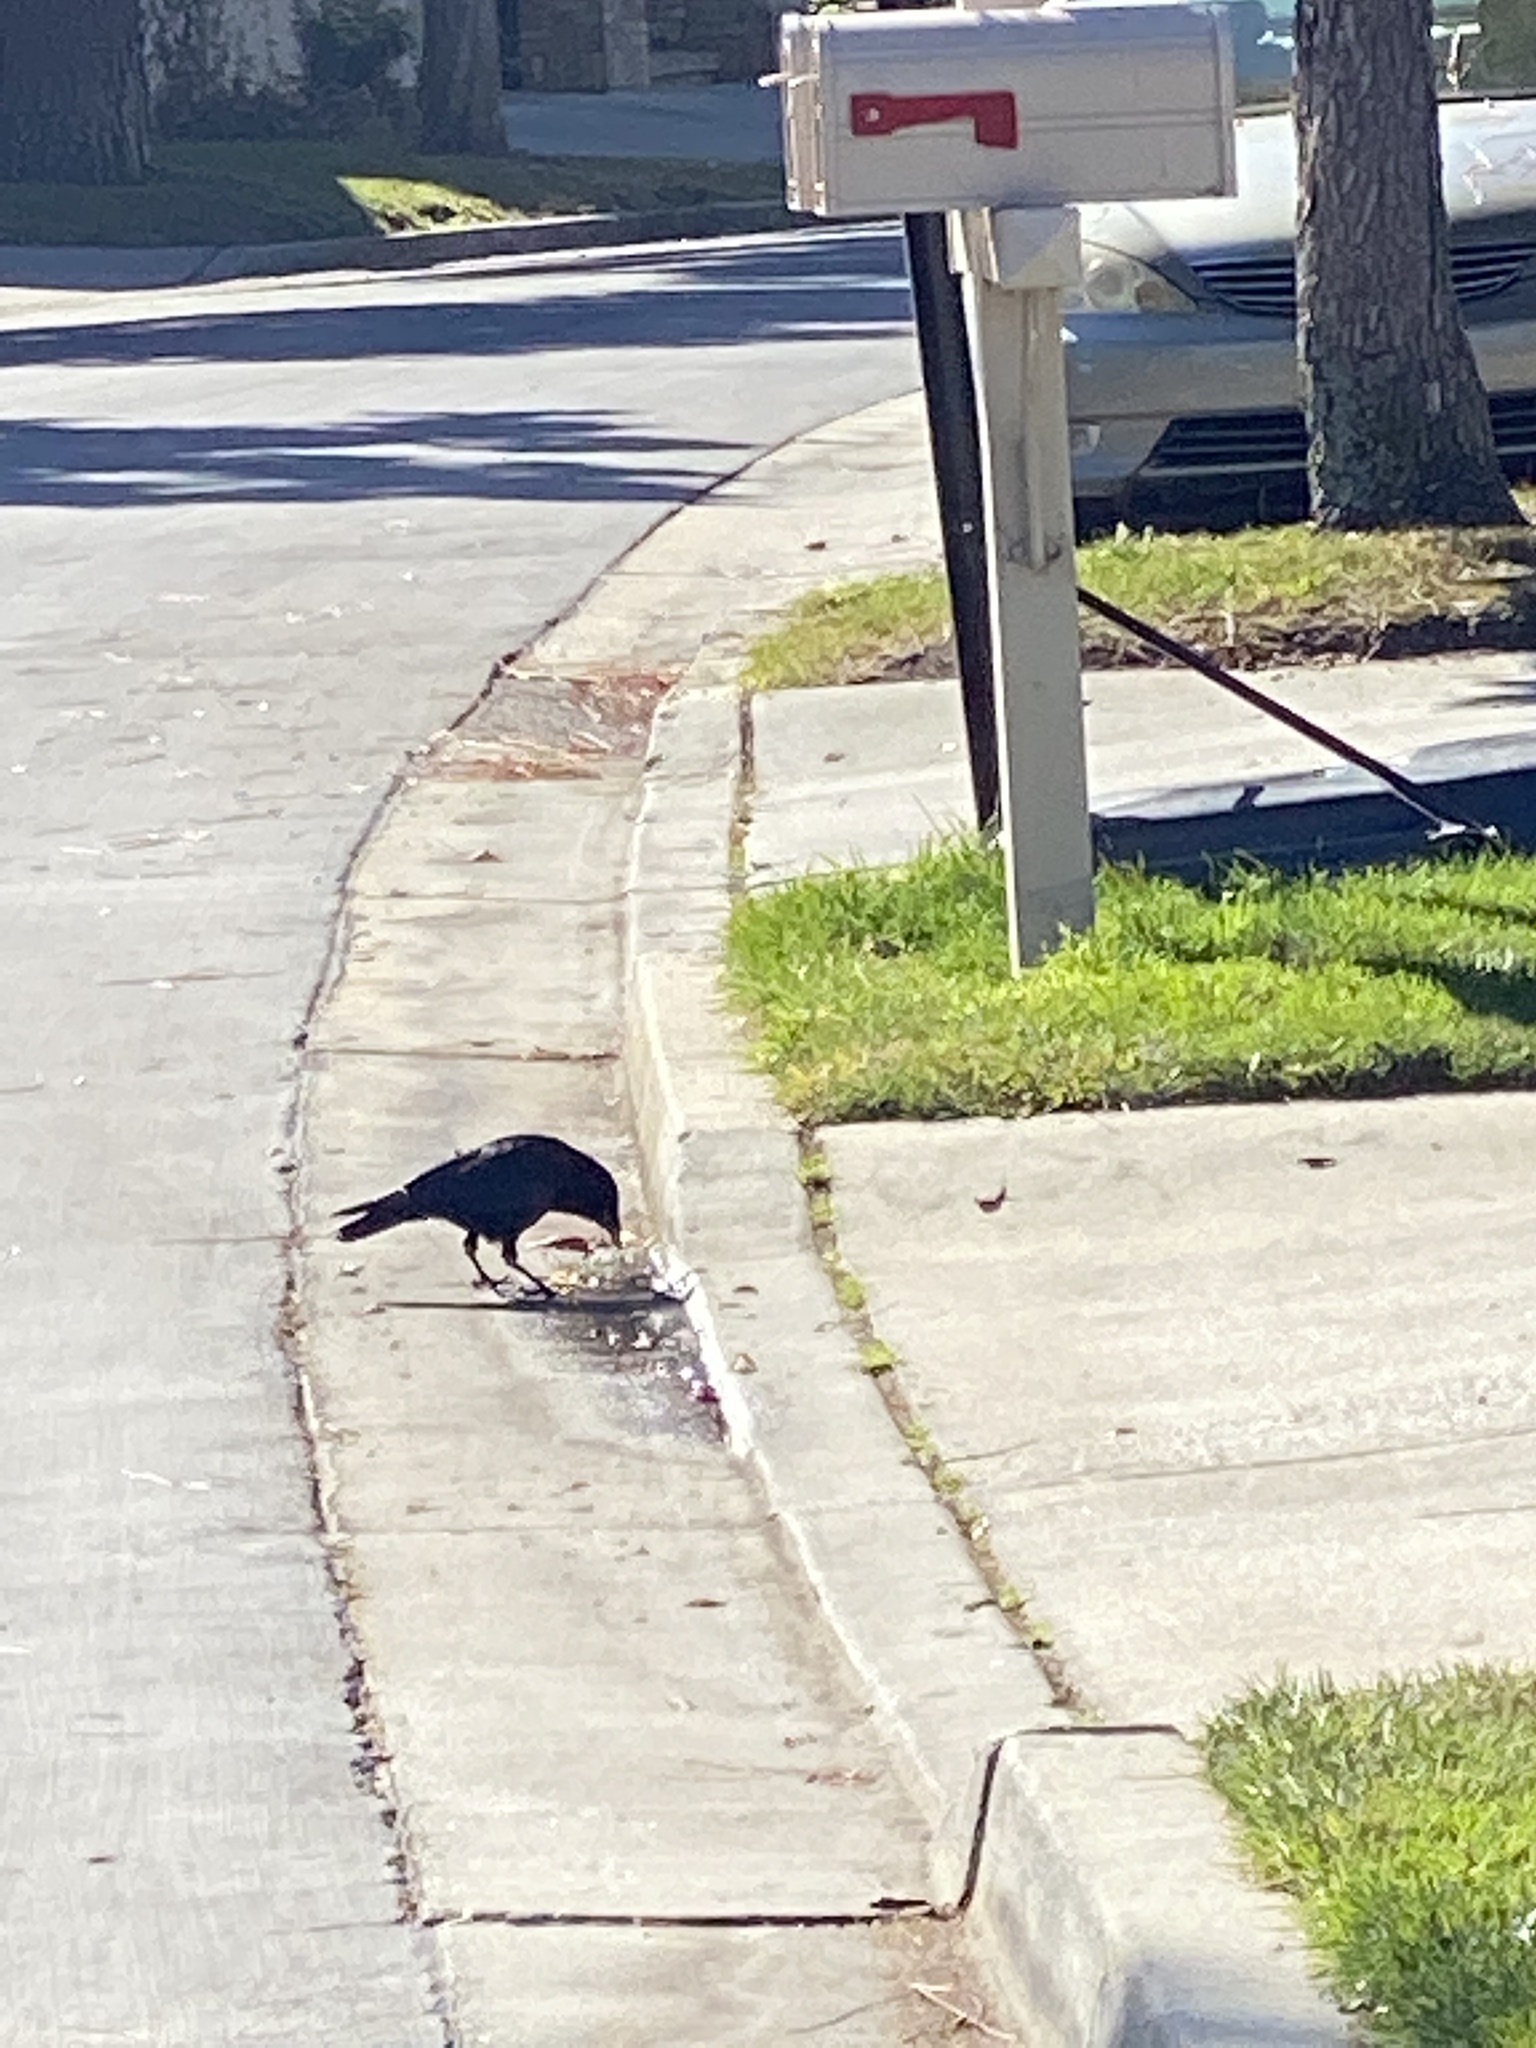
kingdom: Animalia
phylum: Chordata
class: Aves
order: Passeriformes
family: Corvidae
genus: Corvus
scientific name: Corvus brachyrhynchos
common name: American crow
